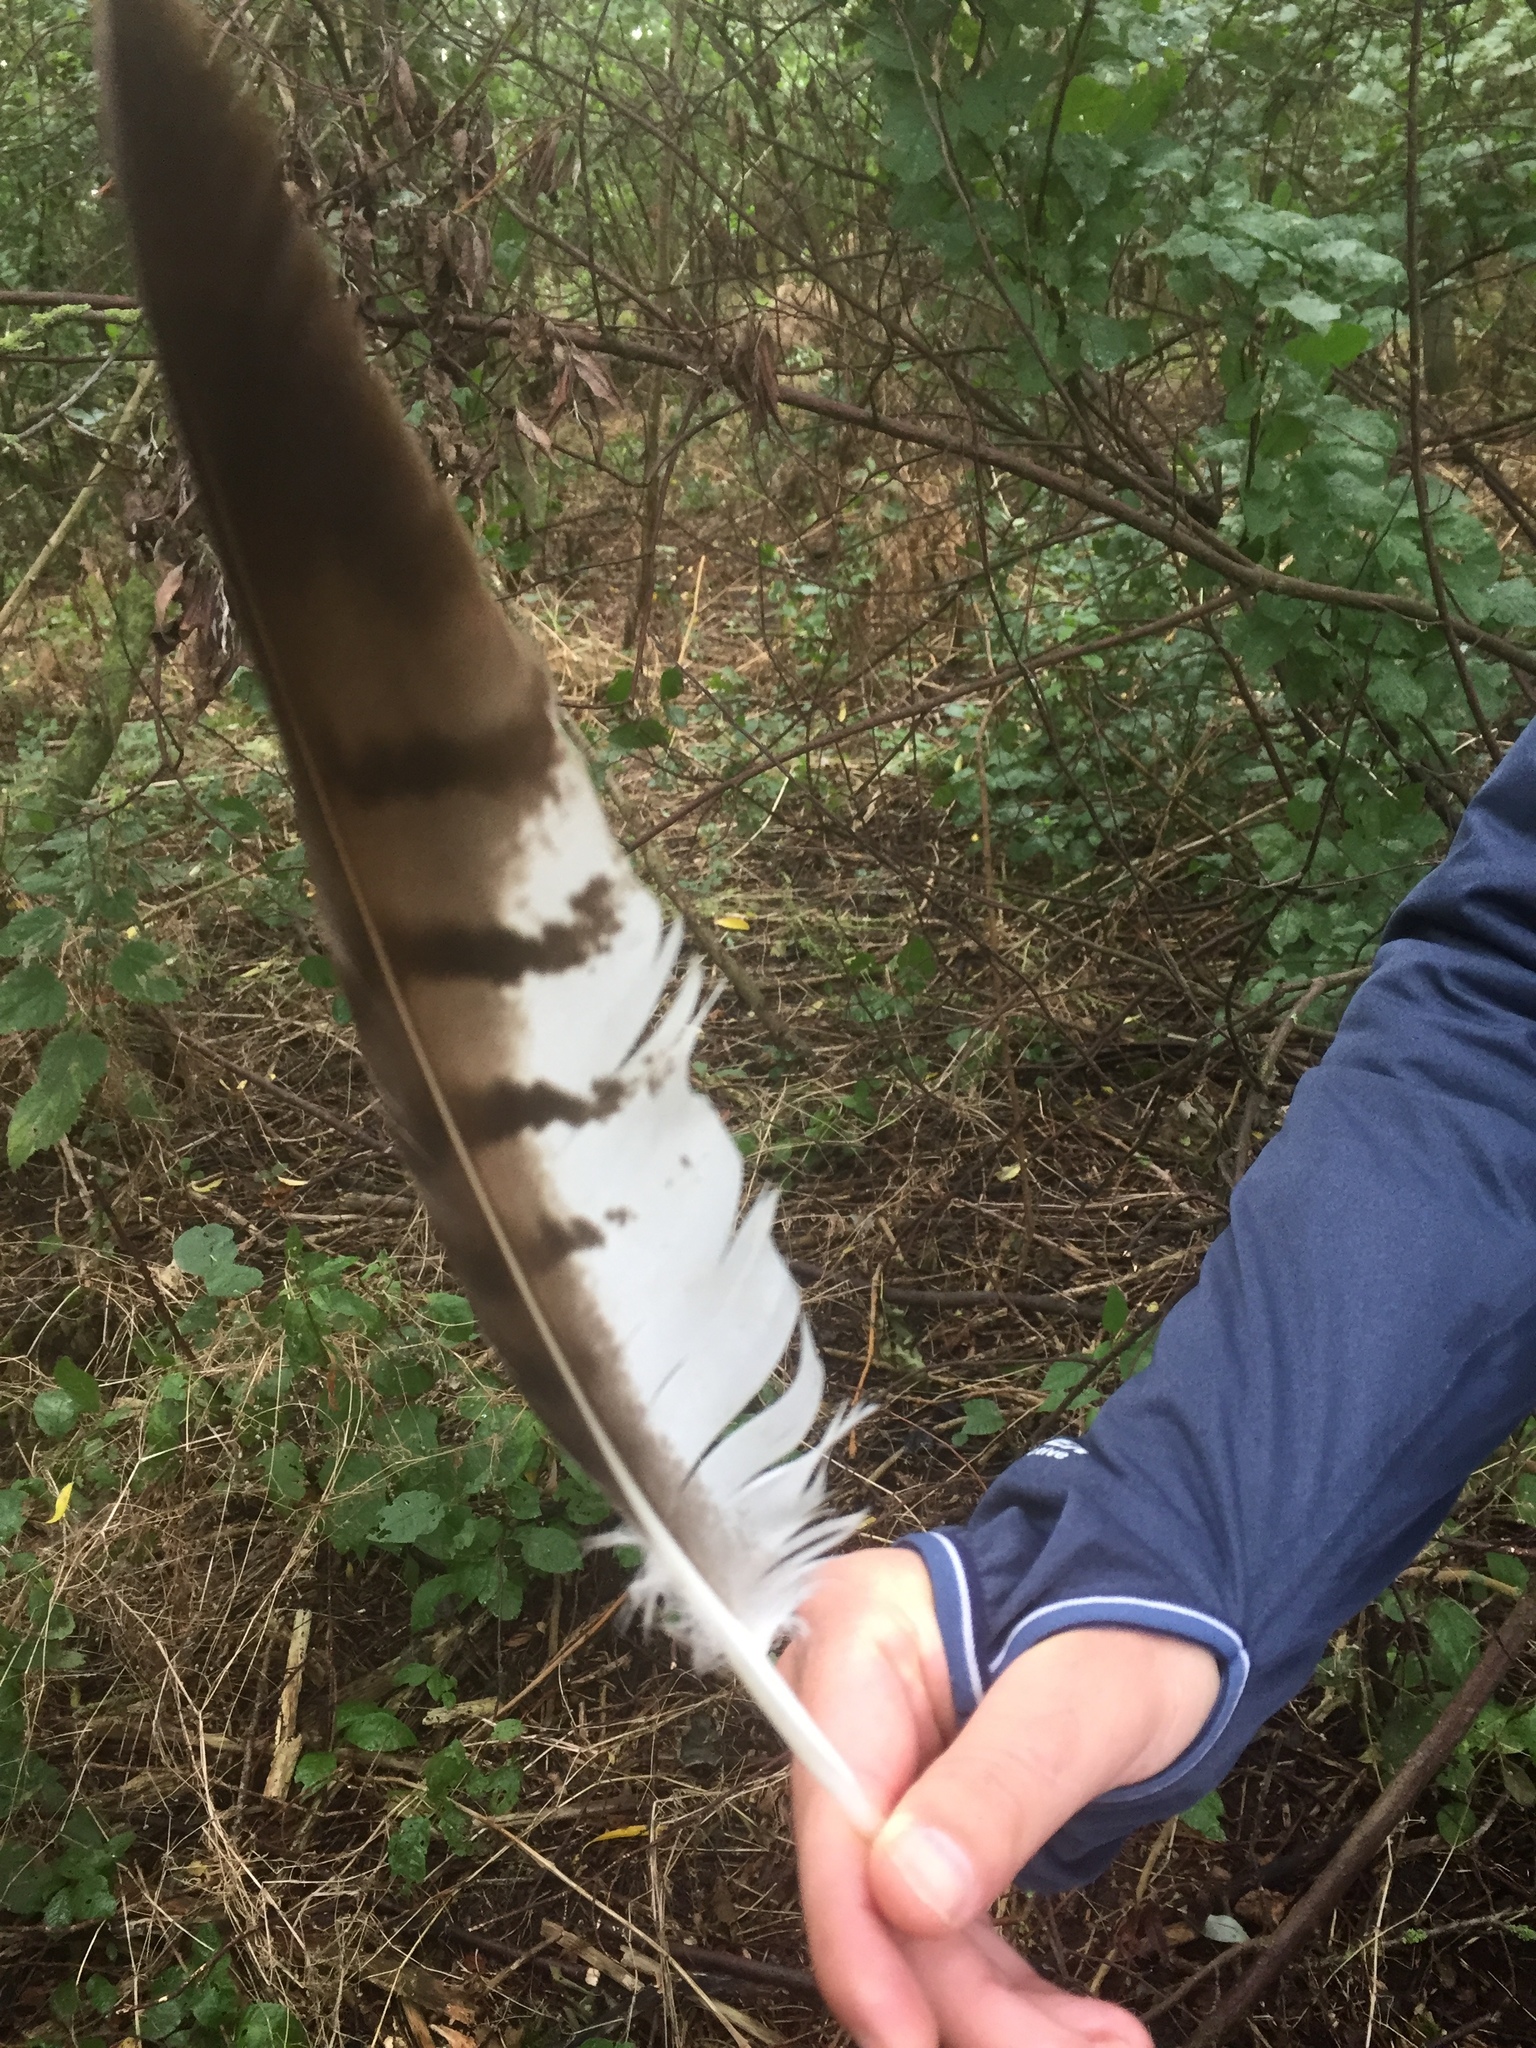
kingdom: Animalia
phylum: Chordata
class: Aves
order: Accipitriformes
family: Accipitridae
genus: Buteo
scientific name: Buteo buteo
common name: Common buzzard
